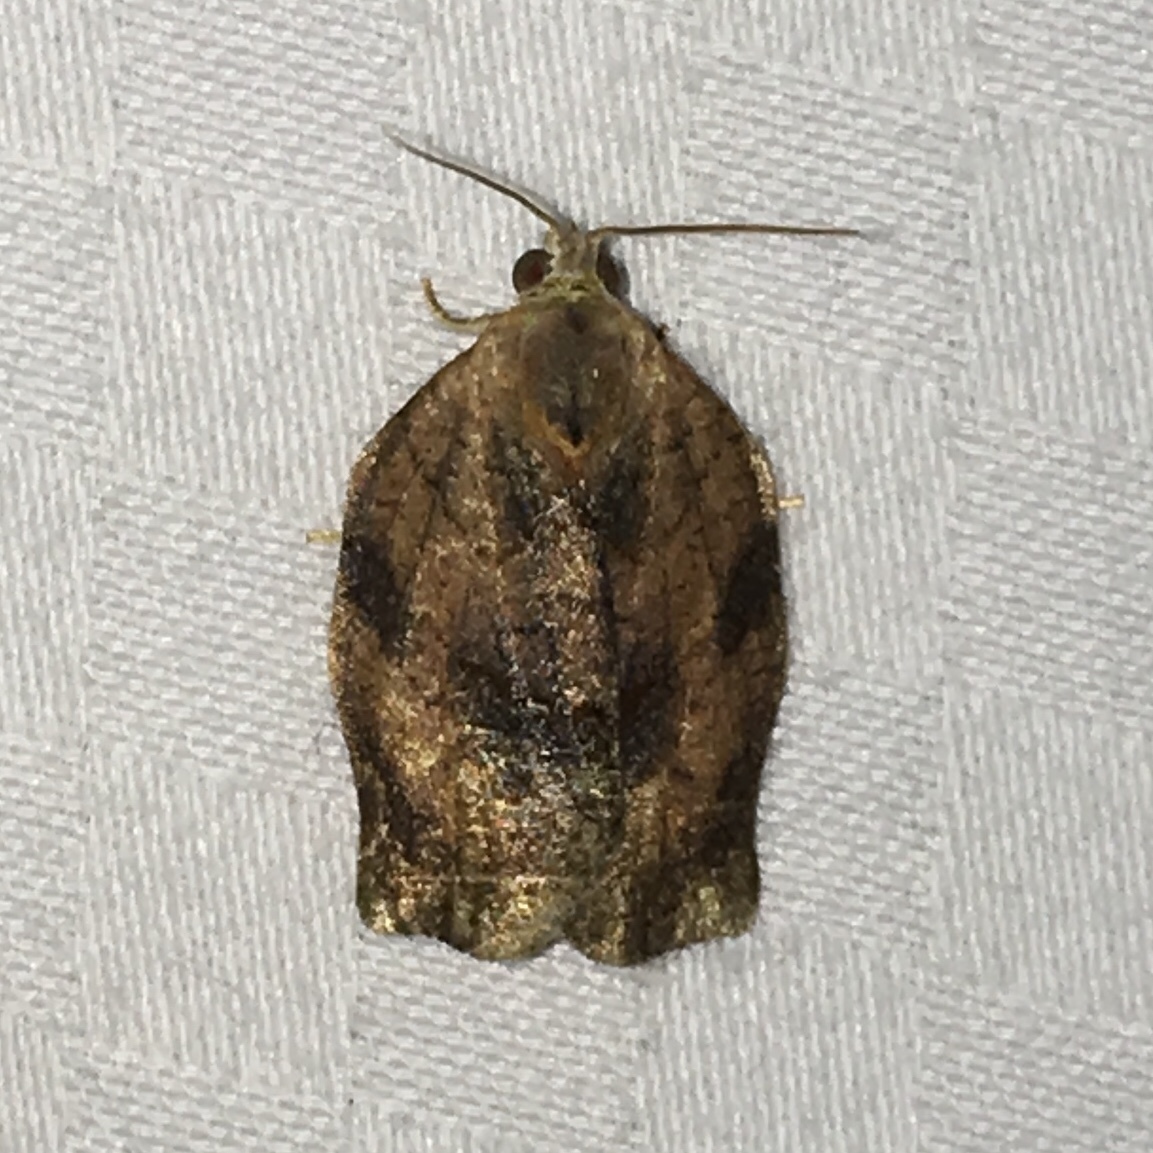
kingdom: Animalia
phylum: Arthropoda
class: Insecta
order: Lepidoptera
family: Tortricidae
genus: Archips
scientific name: Archips purpurana
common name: Omnivorous leafroller
